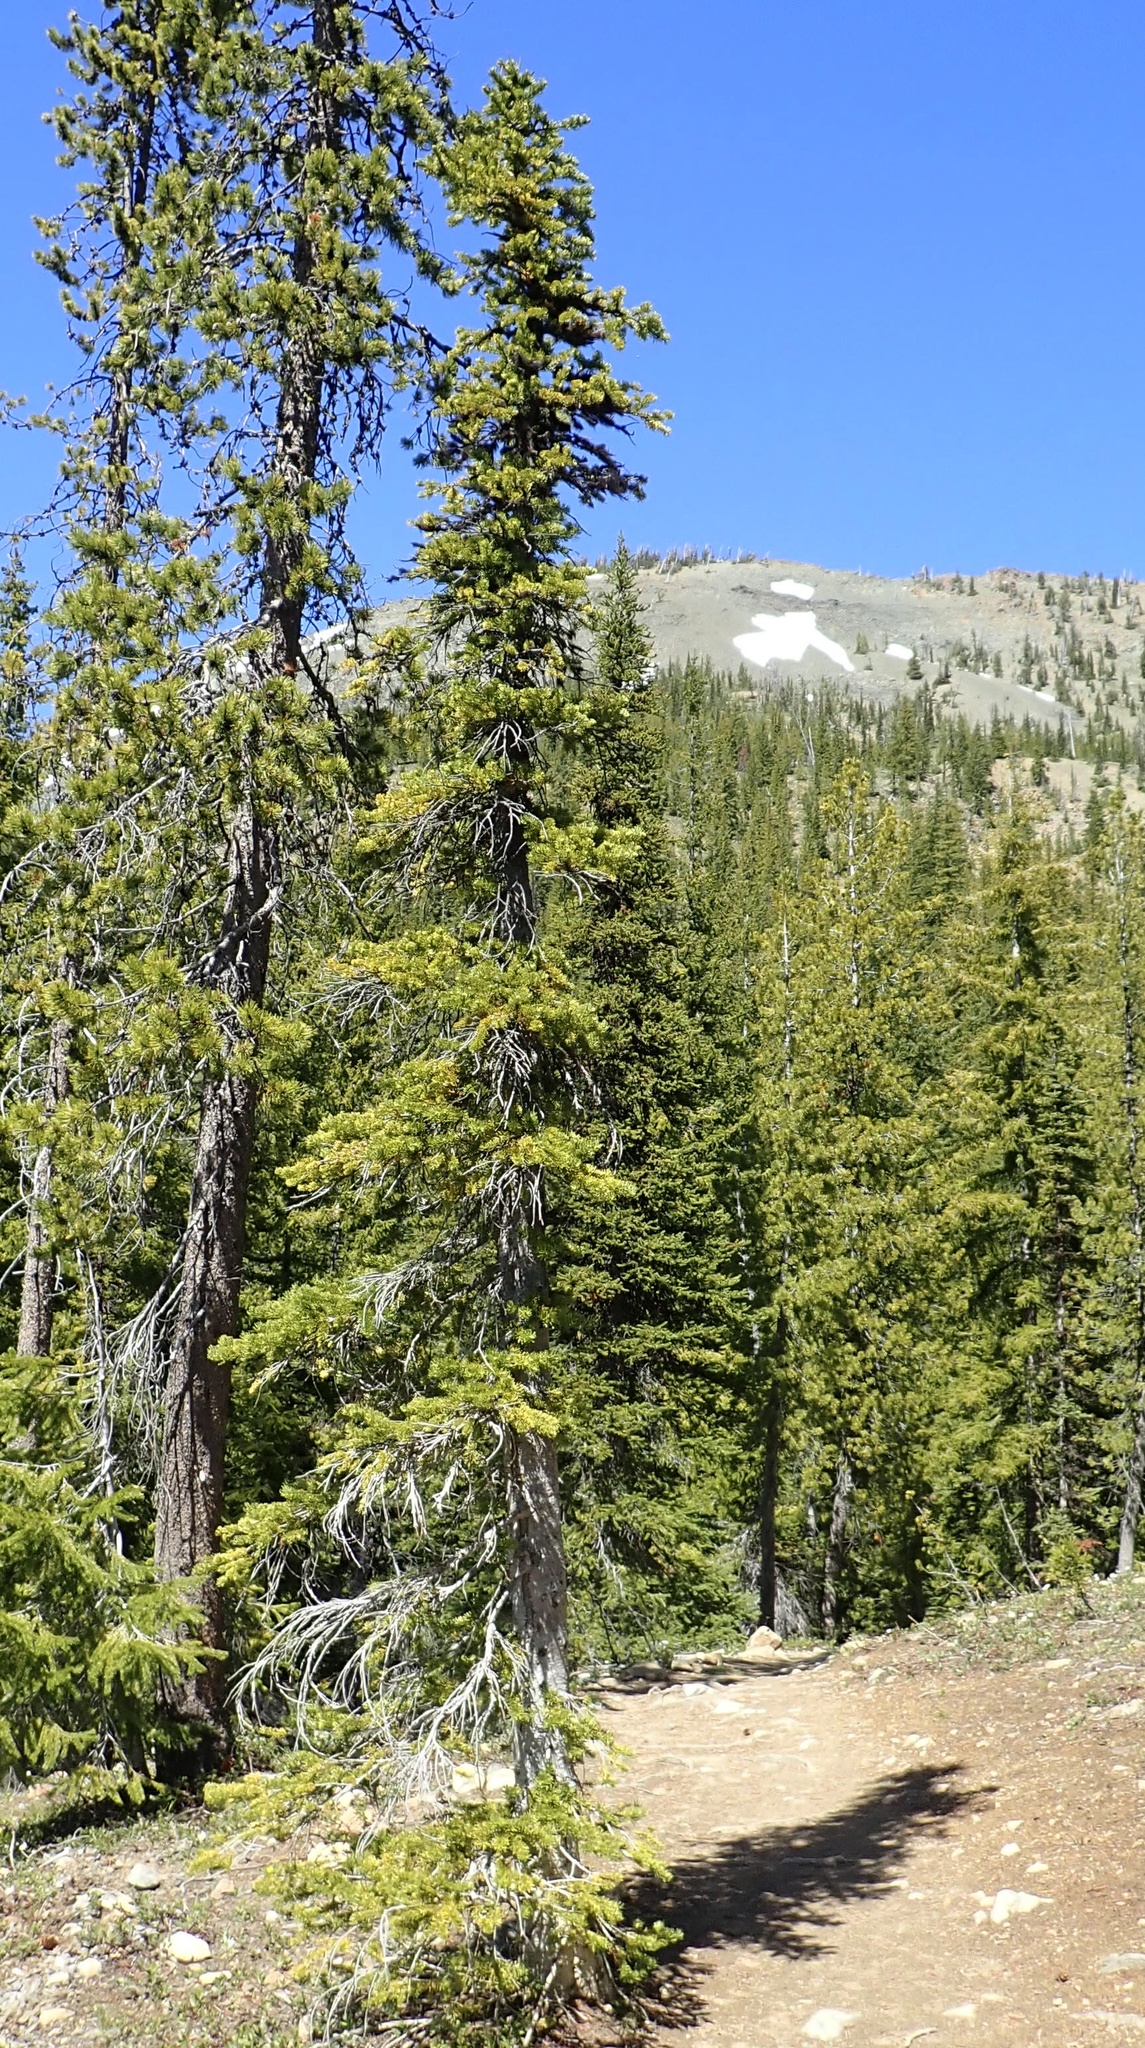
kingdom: Plantae
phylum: Tracheophyta
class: Pinopsida
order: Pinales
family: Pinaceae
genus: Abies
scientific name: Abies lasiocarpa
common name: Subalpine fir
